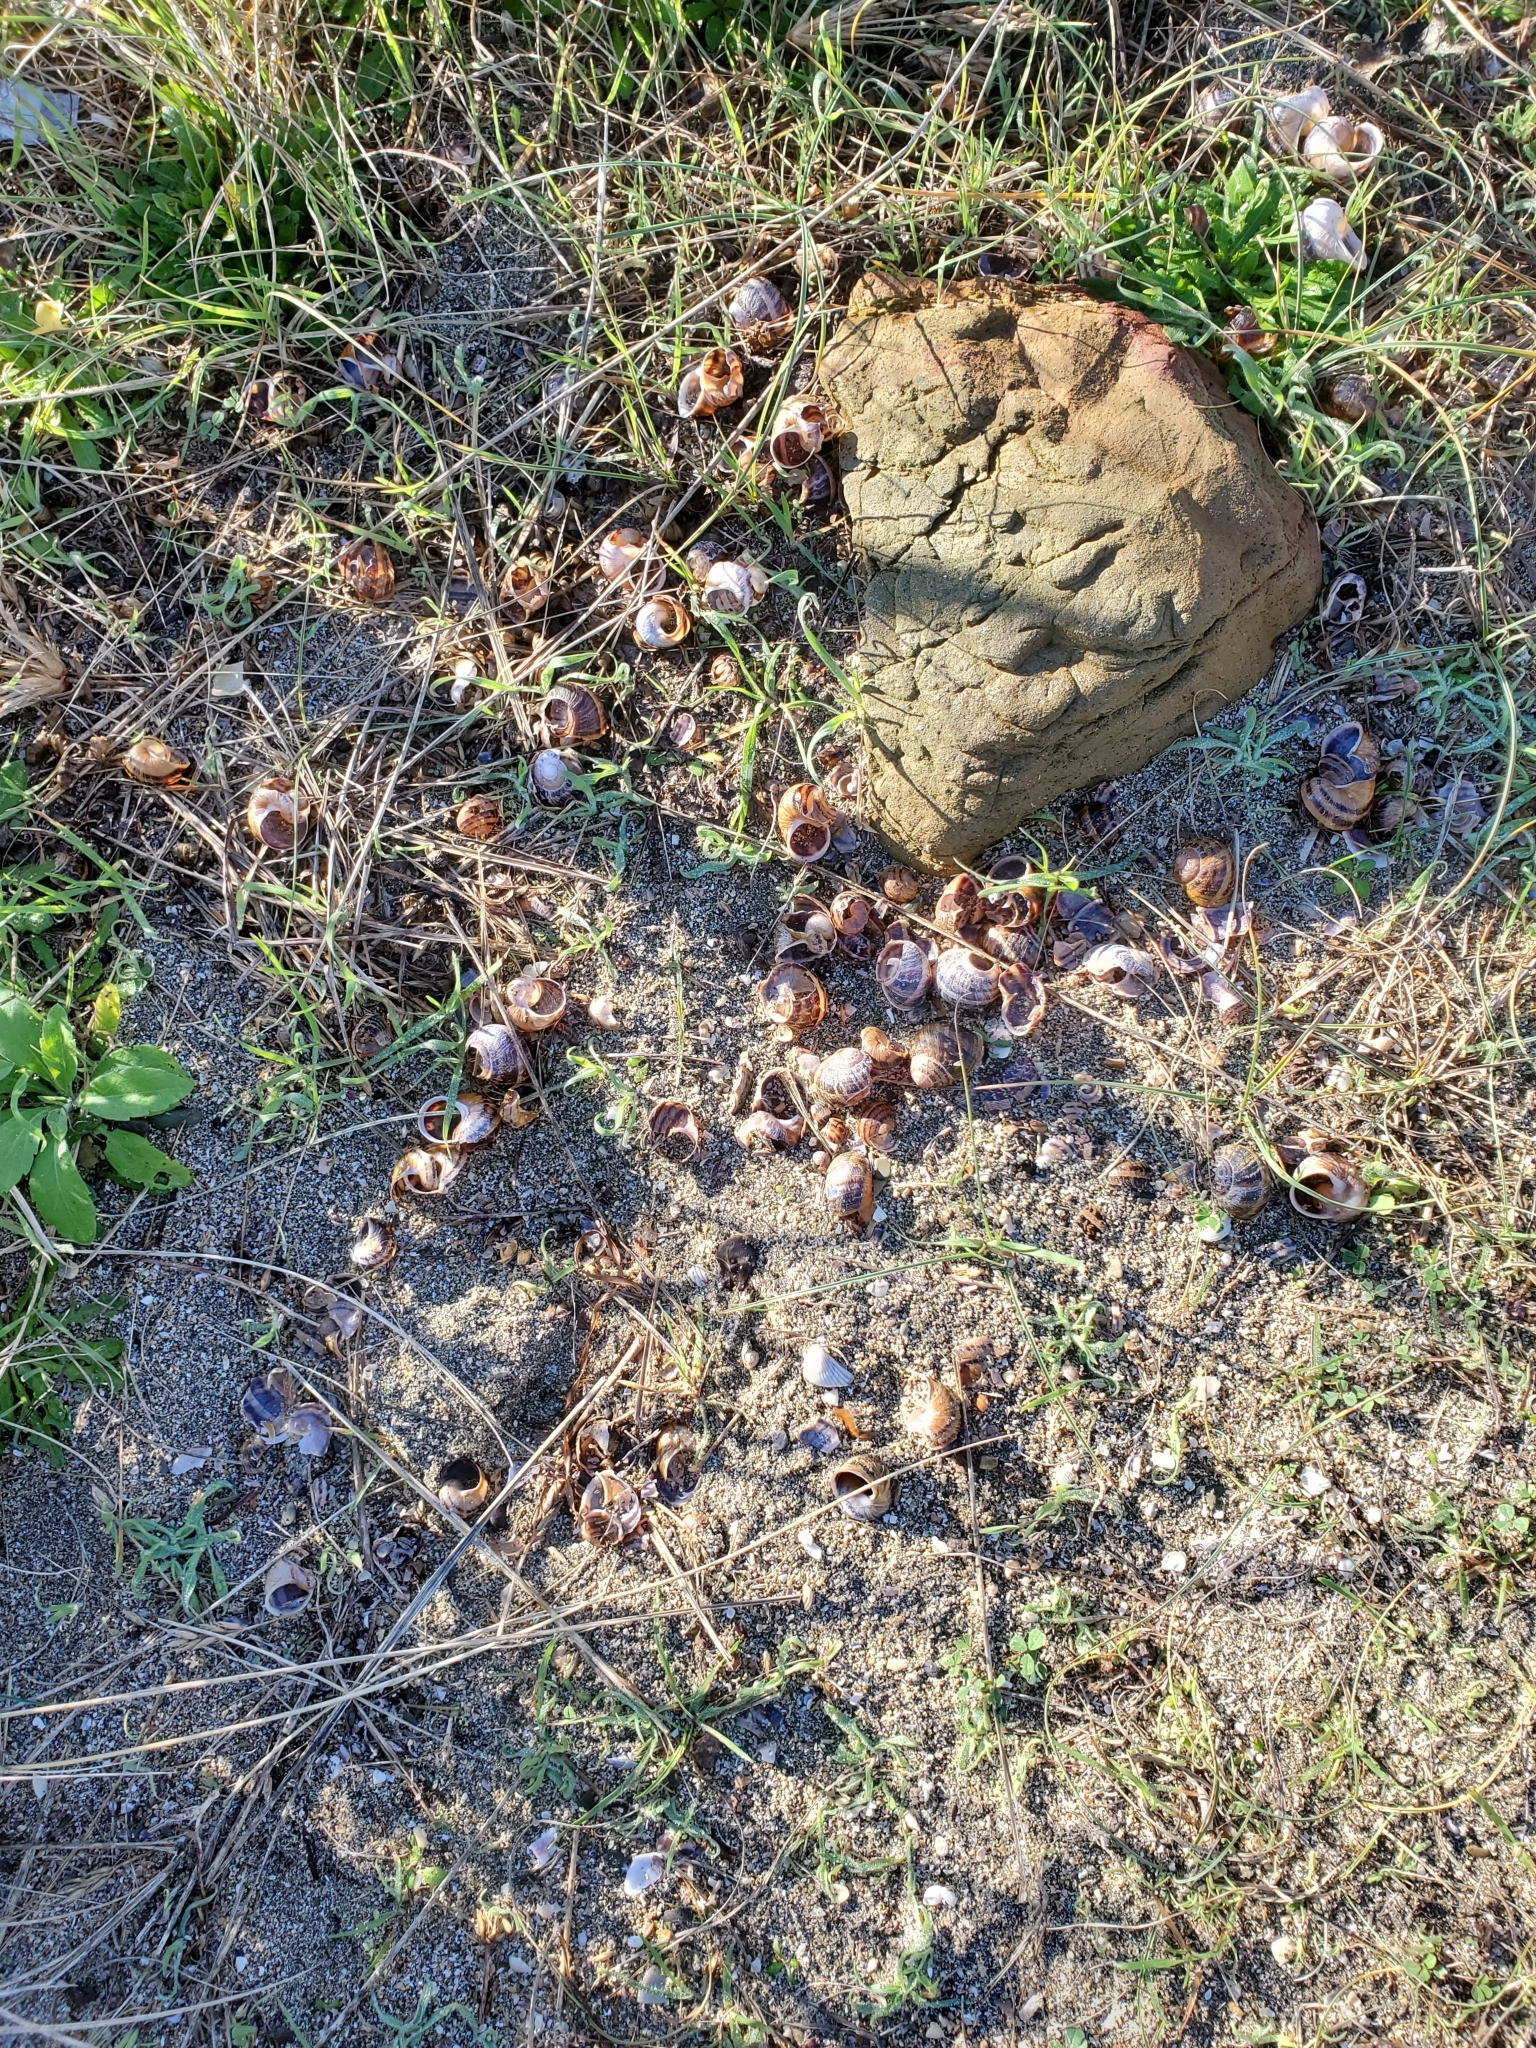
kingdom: Animalia
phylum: Chordata
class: Aves
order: Passeriformes
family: Turdidae
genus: Turdus
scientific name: Turdus
